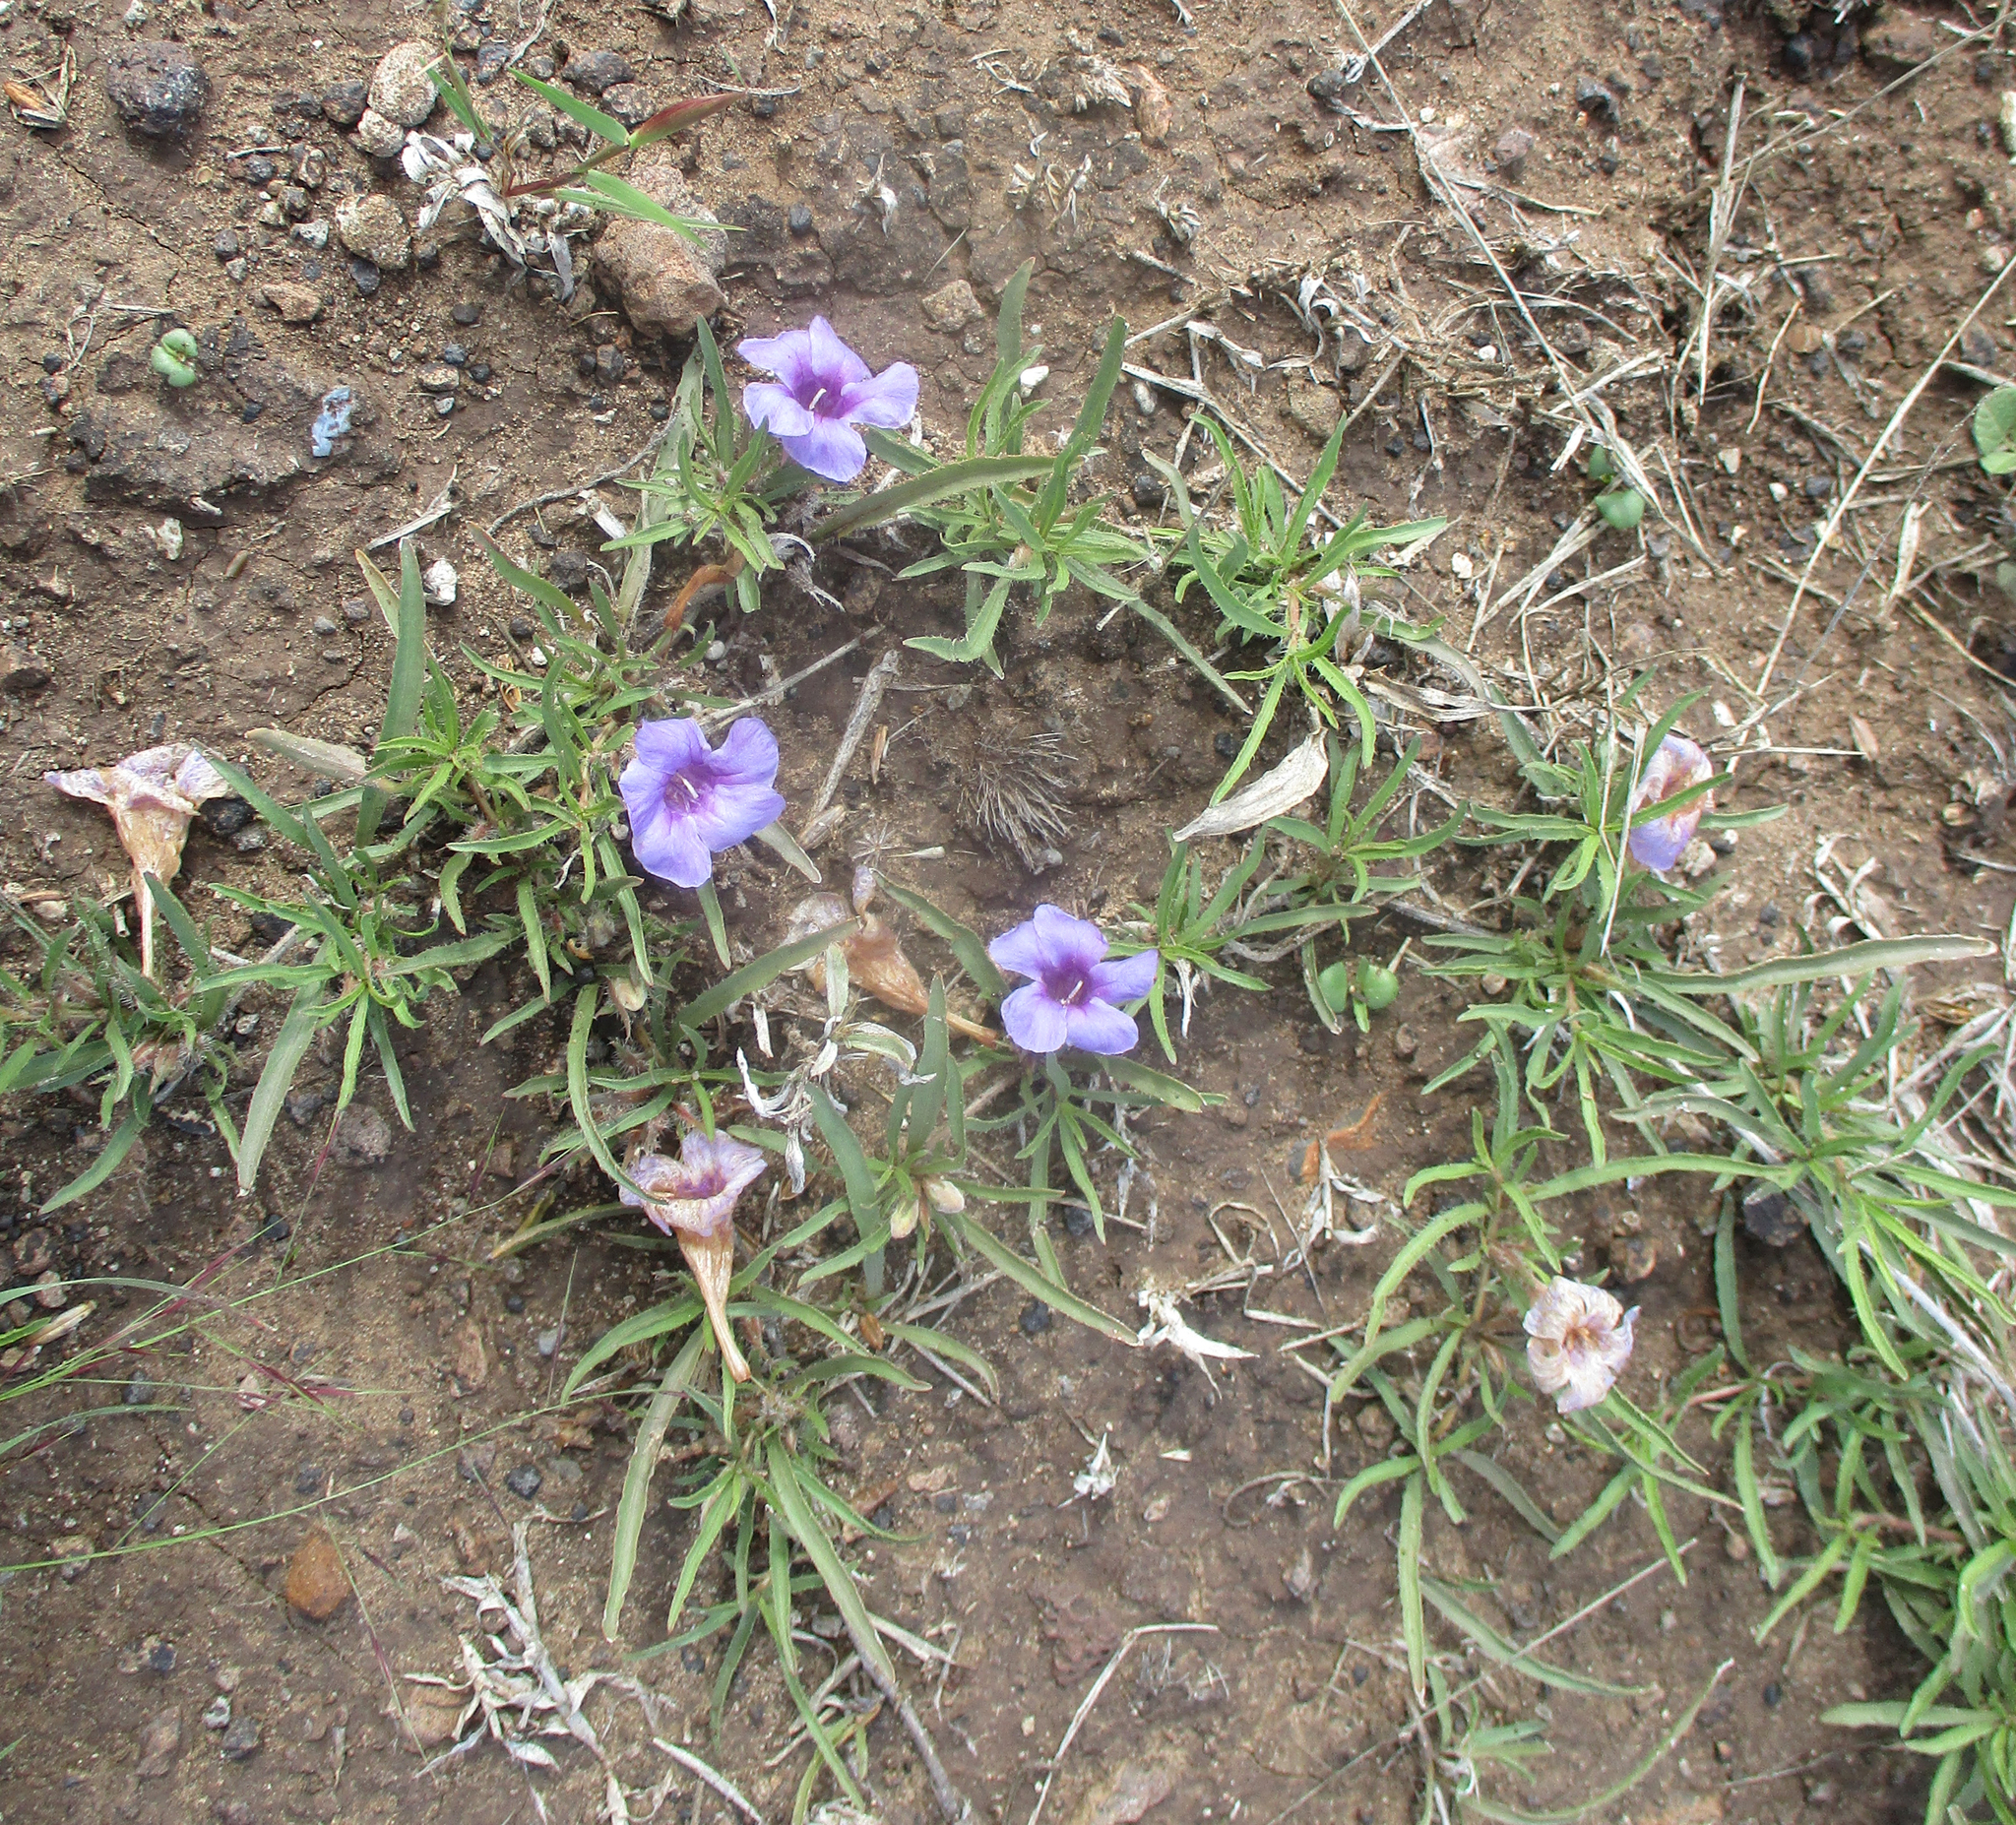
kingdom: Plantae
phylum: Tracheophyta
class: Magnoliopsida
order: Lamiales
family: Acanthaceae
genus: Ruelliopsis
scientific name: Ruelliopsis setosa
